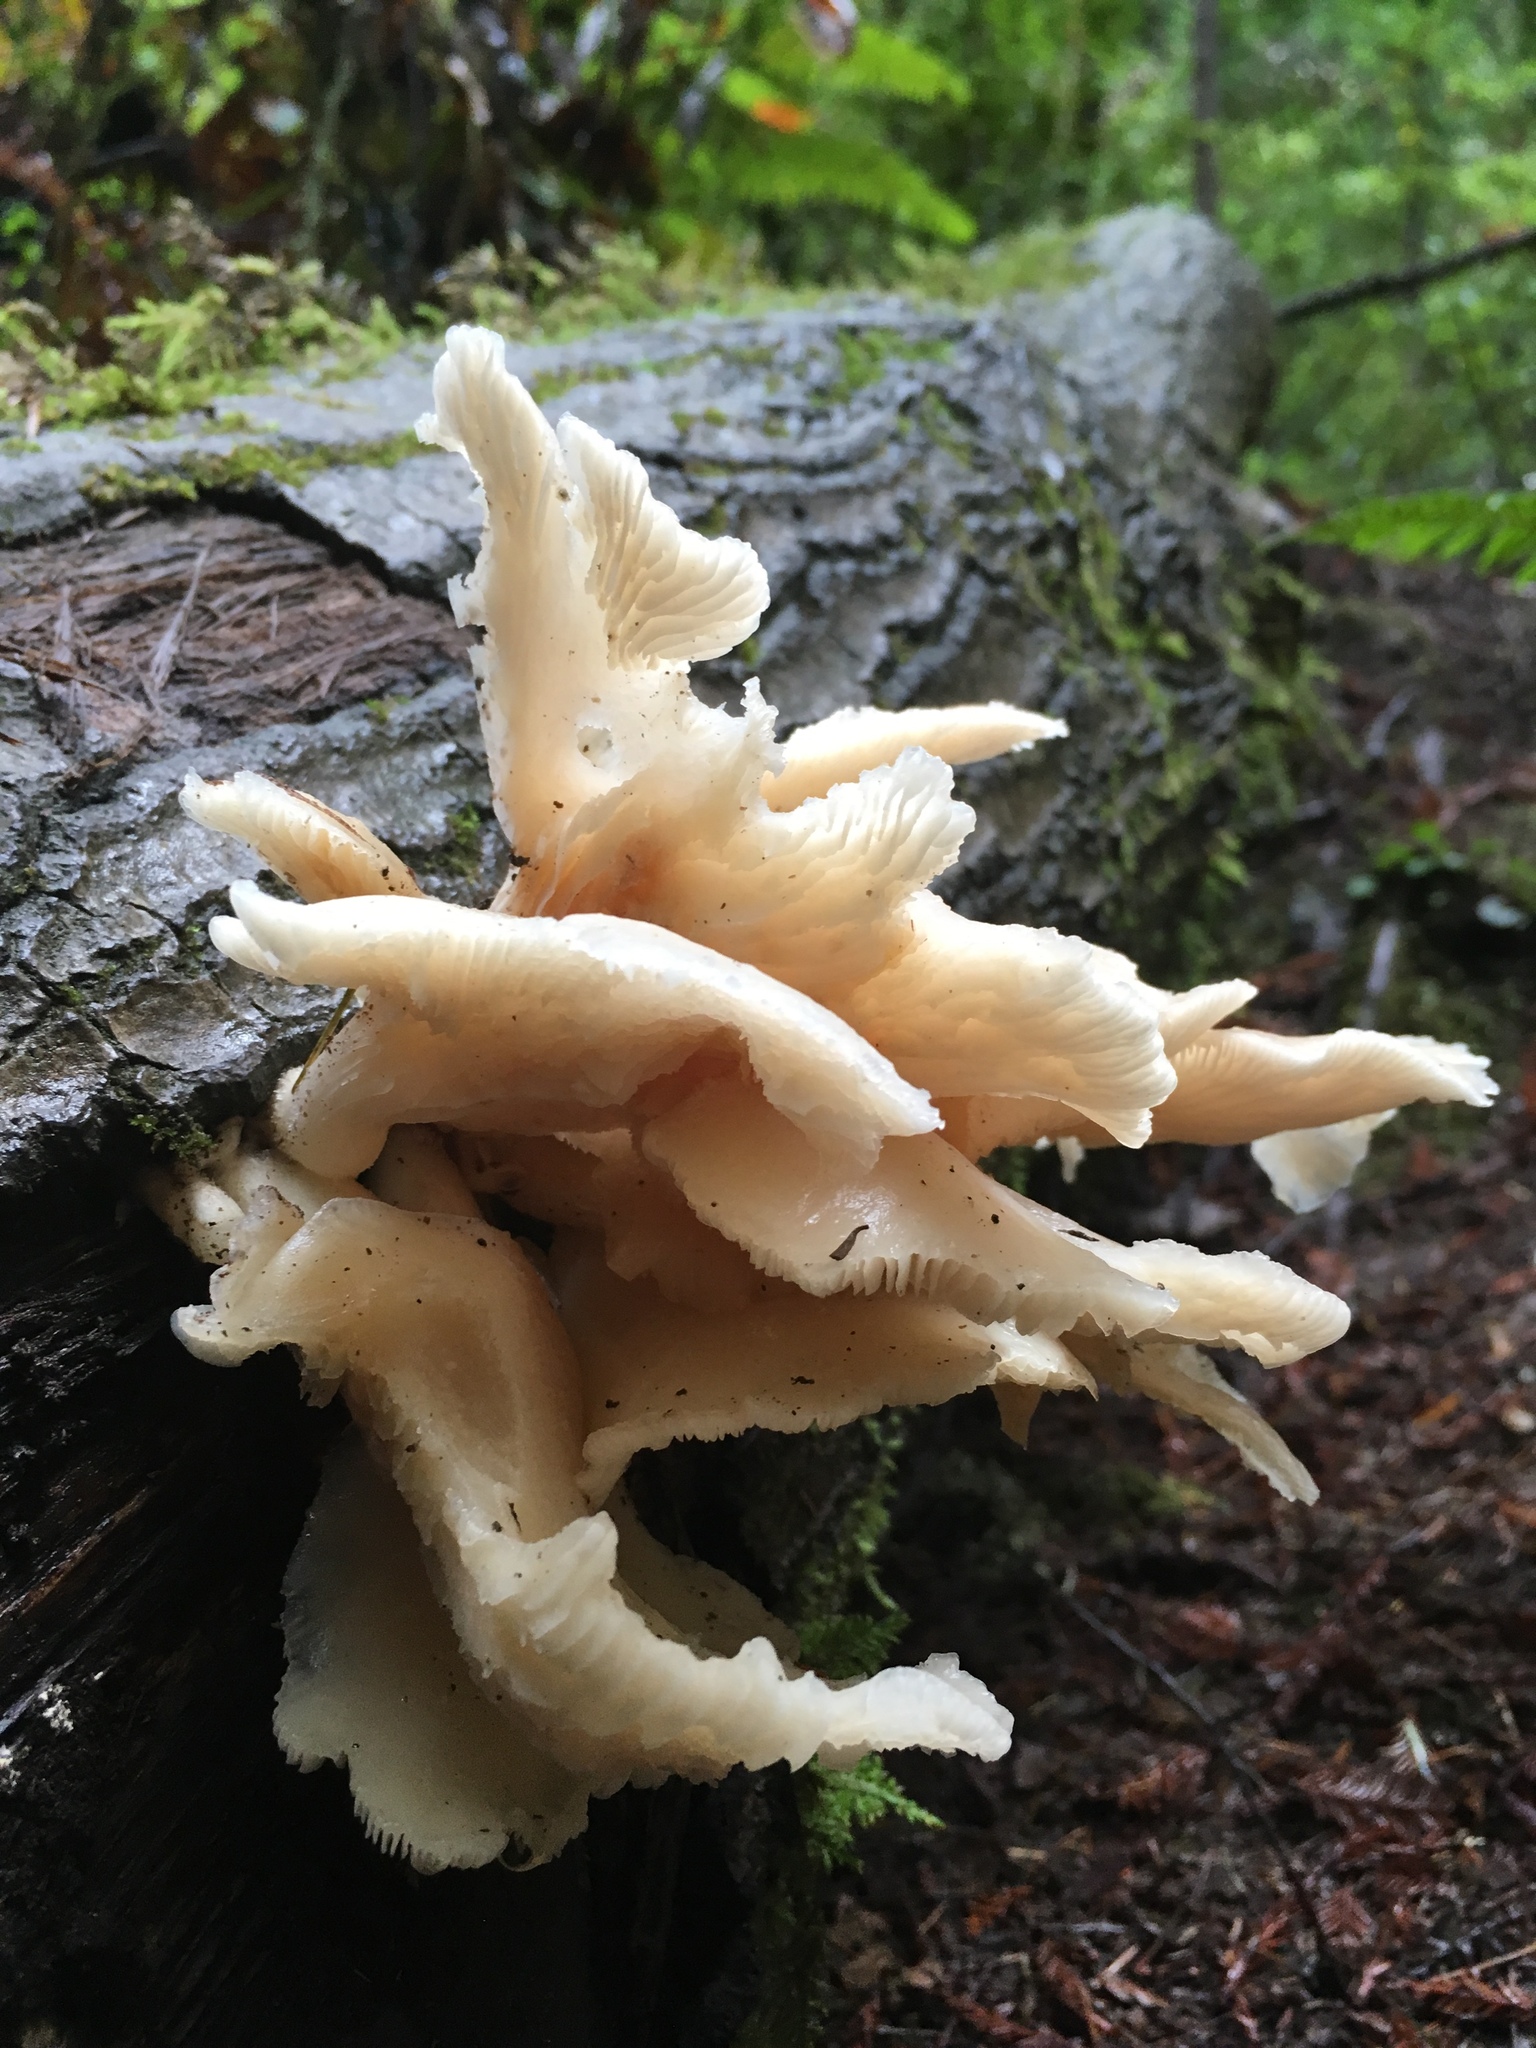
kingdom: Fungi
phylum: Basidiomycota
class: Agaricomycetes
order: Agaricales
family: Pleurotaceae
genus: Pleurotus
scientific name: Pleurotus pulmonarius
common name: Pale oyster
